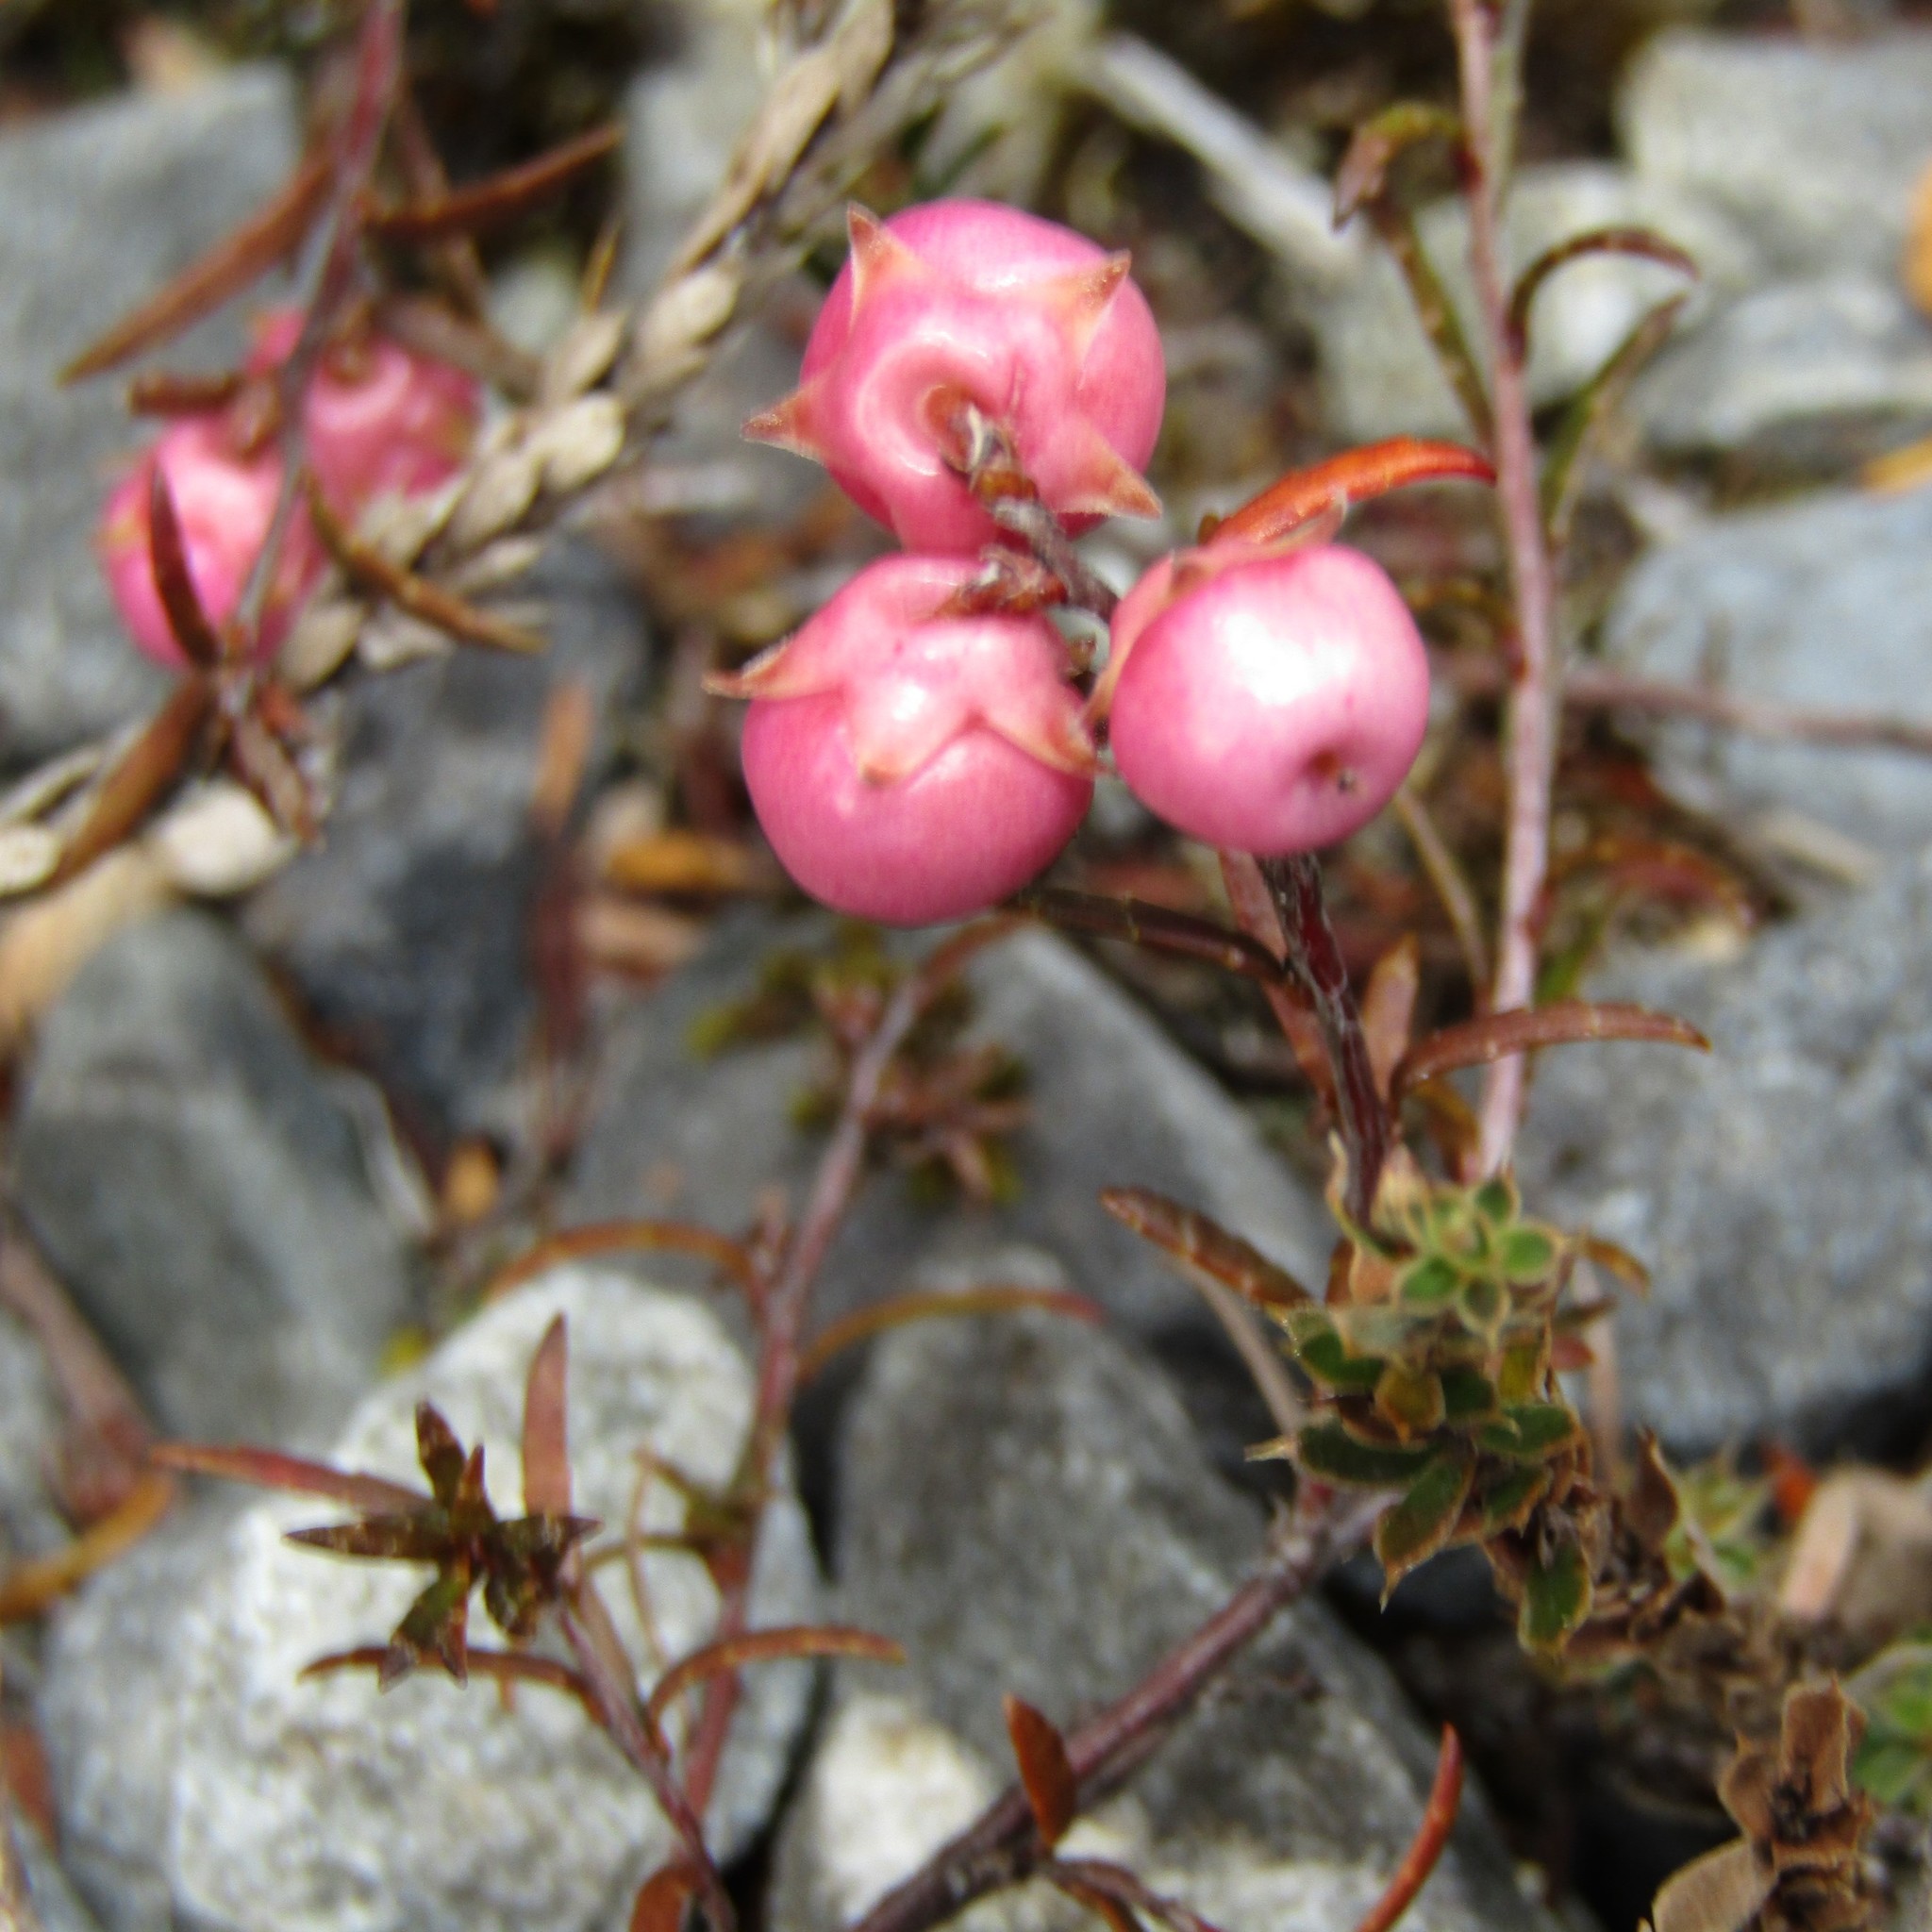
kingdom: Plantae
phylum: Tracheophyta
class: Magnoliopsida
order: Ericales
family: Ericaceae
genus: Gaultheria
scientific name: Gaultheria macrostigma
